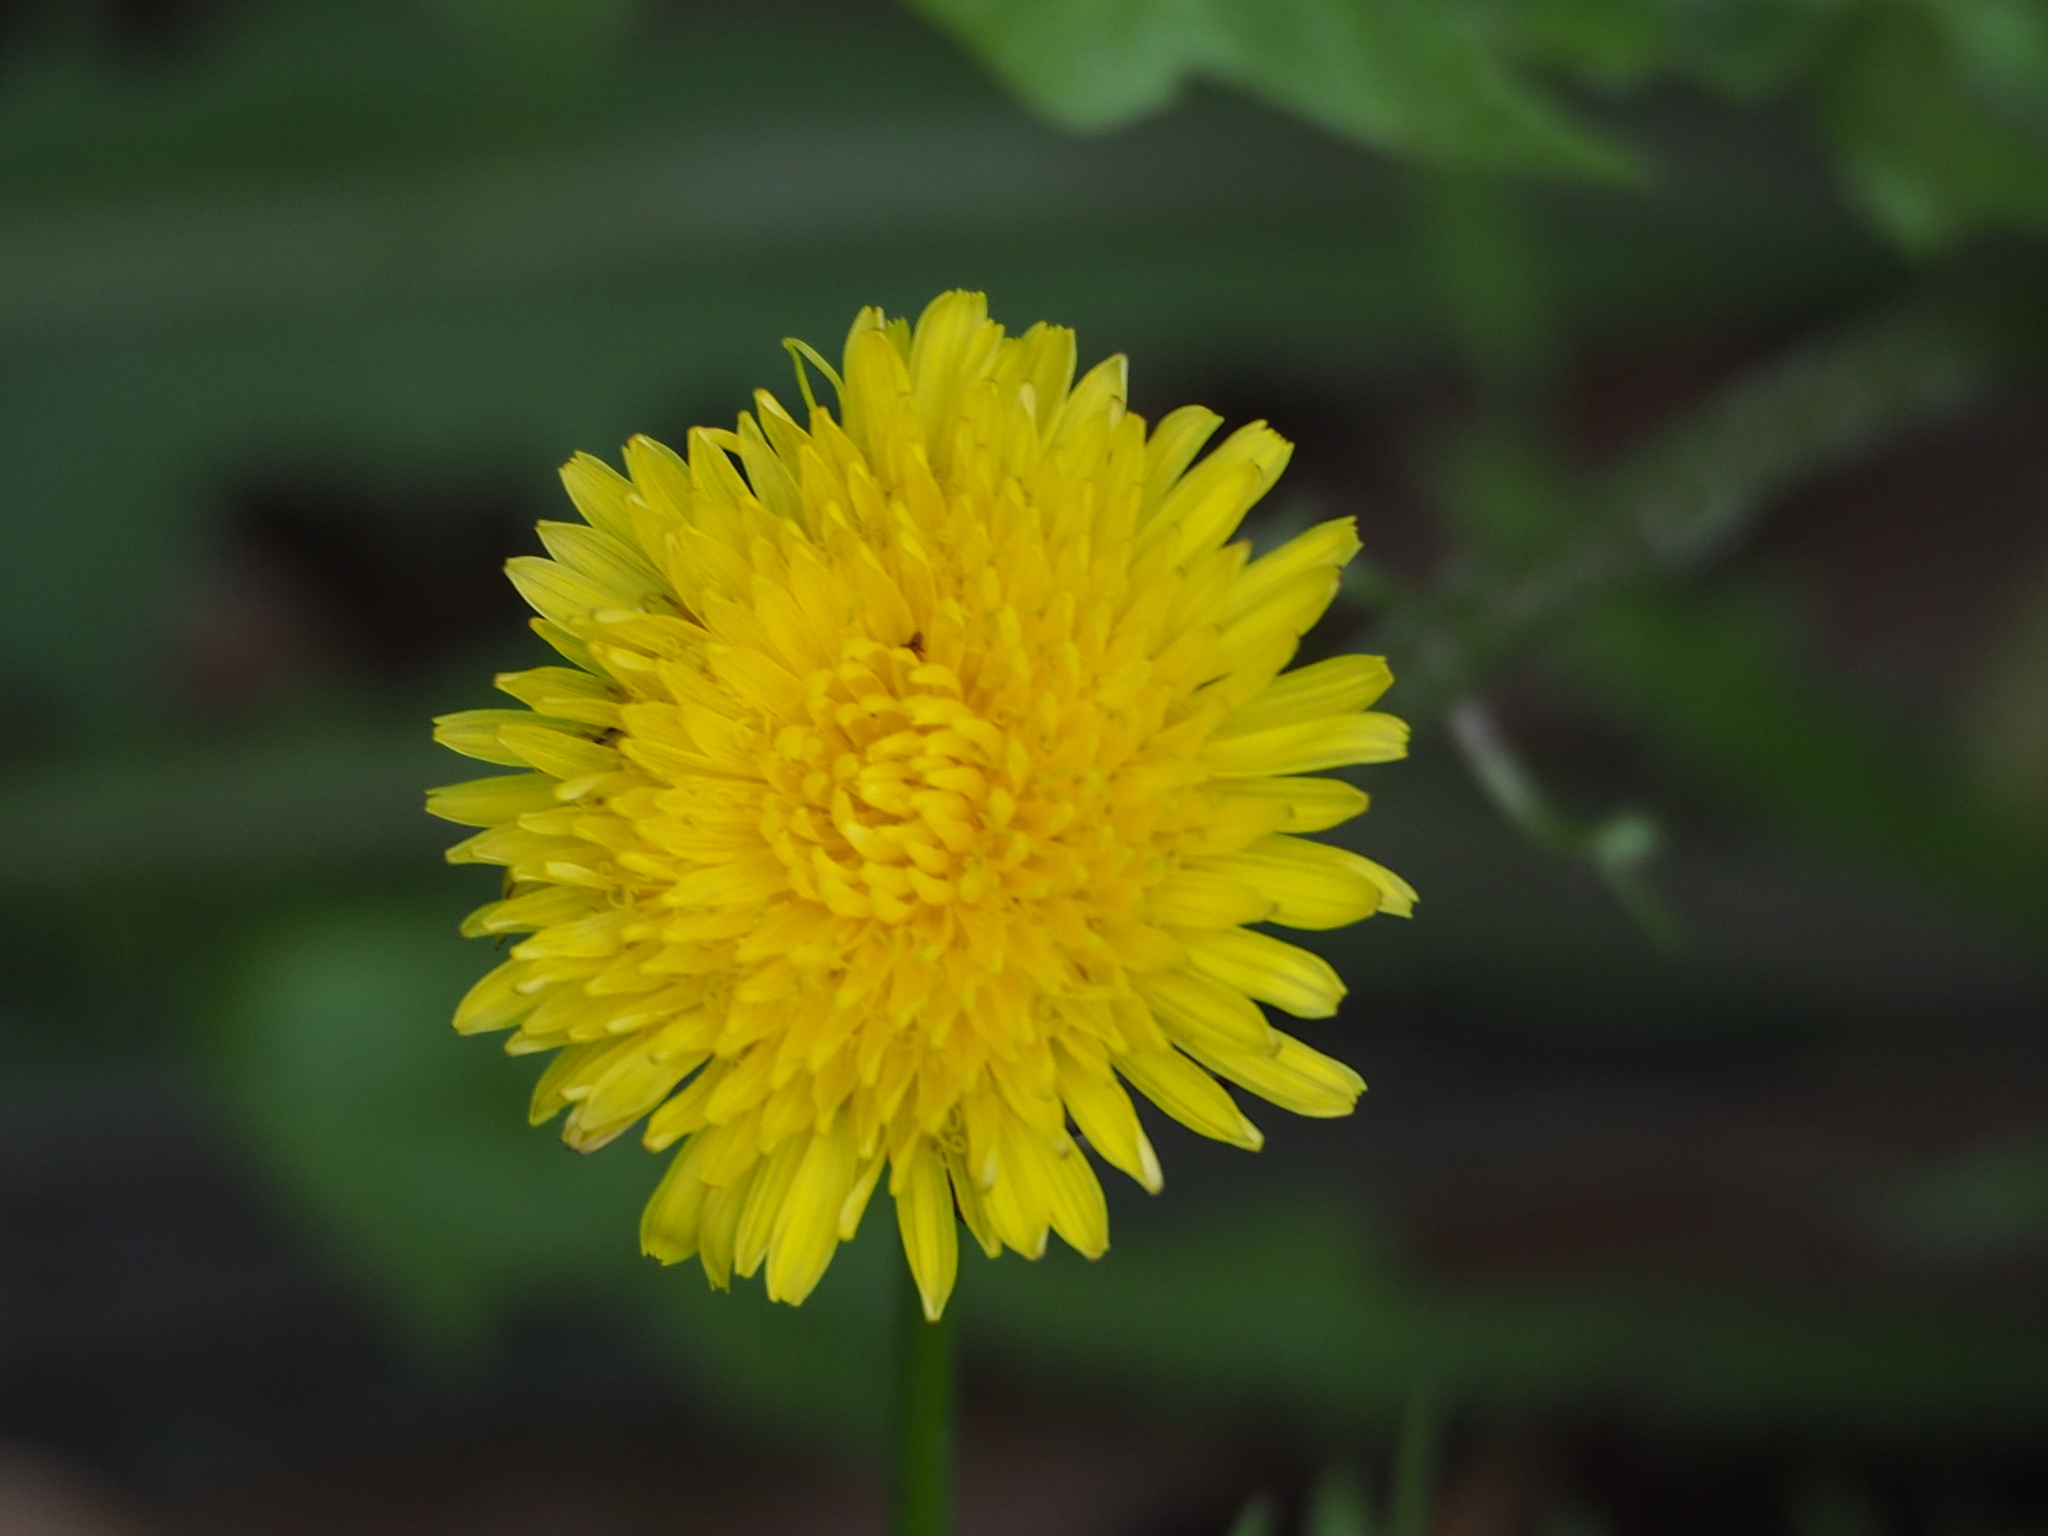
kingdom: Plantae
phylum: Tracheophyta
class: Magnoliopsida
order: Asterales
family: Asteraceae
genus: Taraxacum
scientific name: Taraxacum officinale
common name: Common dandelion
